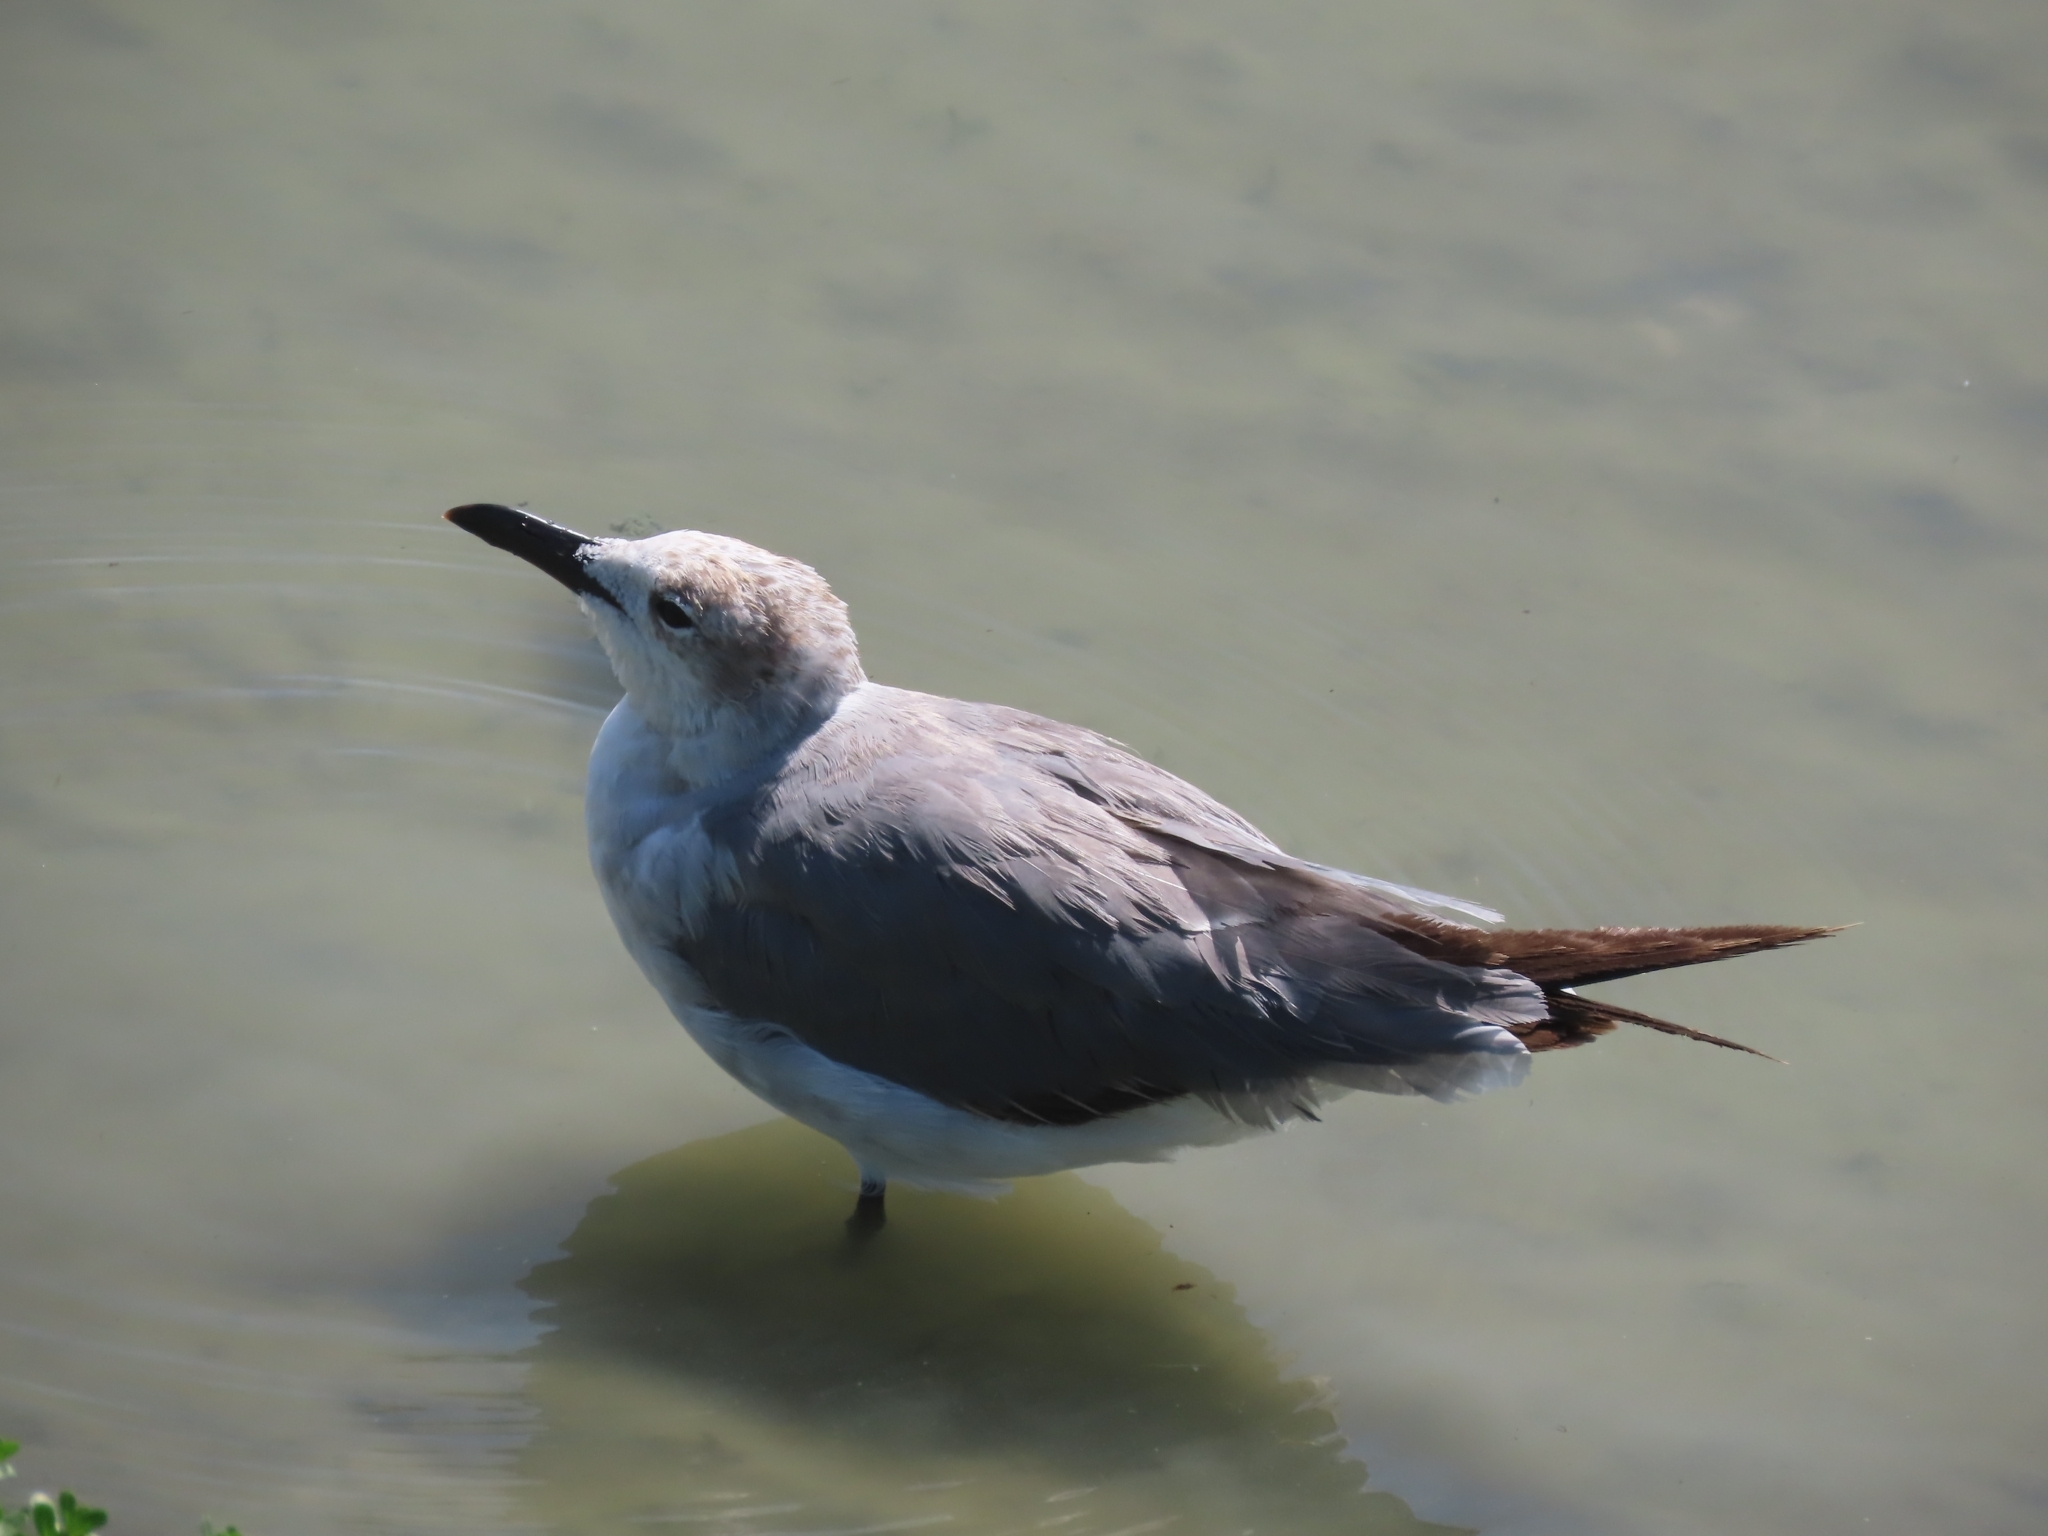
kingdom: Animalia
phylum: Chordata
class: Aves
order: Charadriiformes
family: Laridae
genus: Leucophaeus
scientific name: Leucophaeus atricilla
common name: Laughing gull
